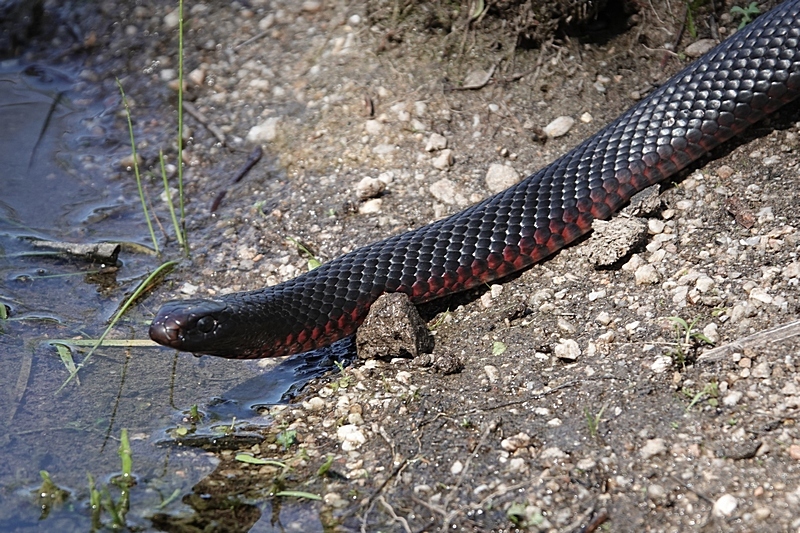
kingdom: Animalia
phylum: Chordata
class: Squamata
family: Elapidae
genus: Pseudechis
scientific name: Pseudechis porphyriacus
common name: Australian black snake
